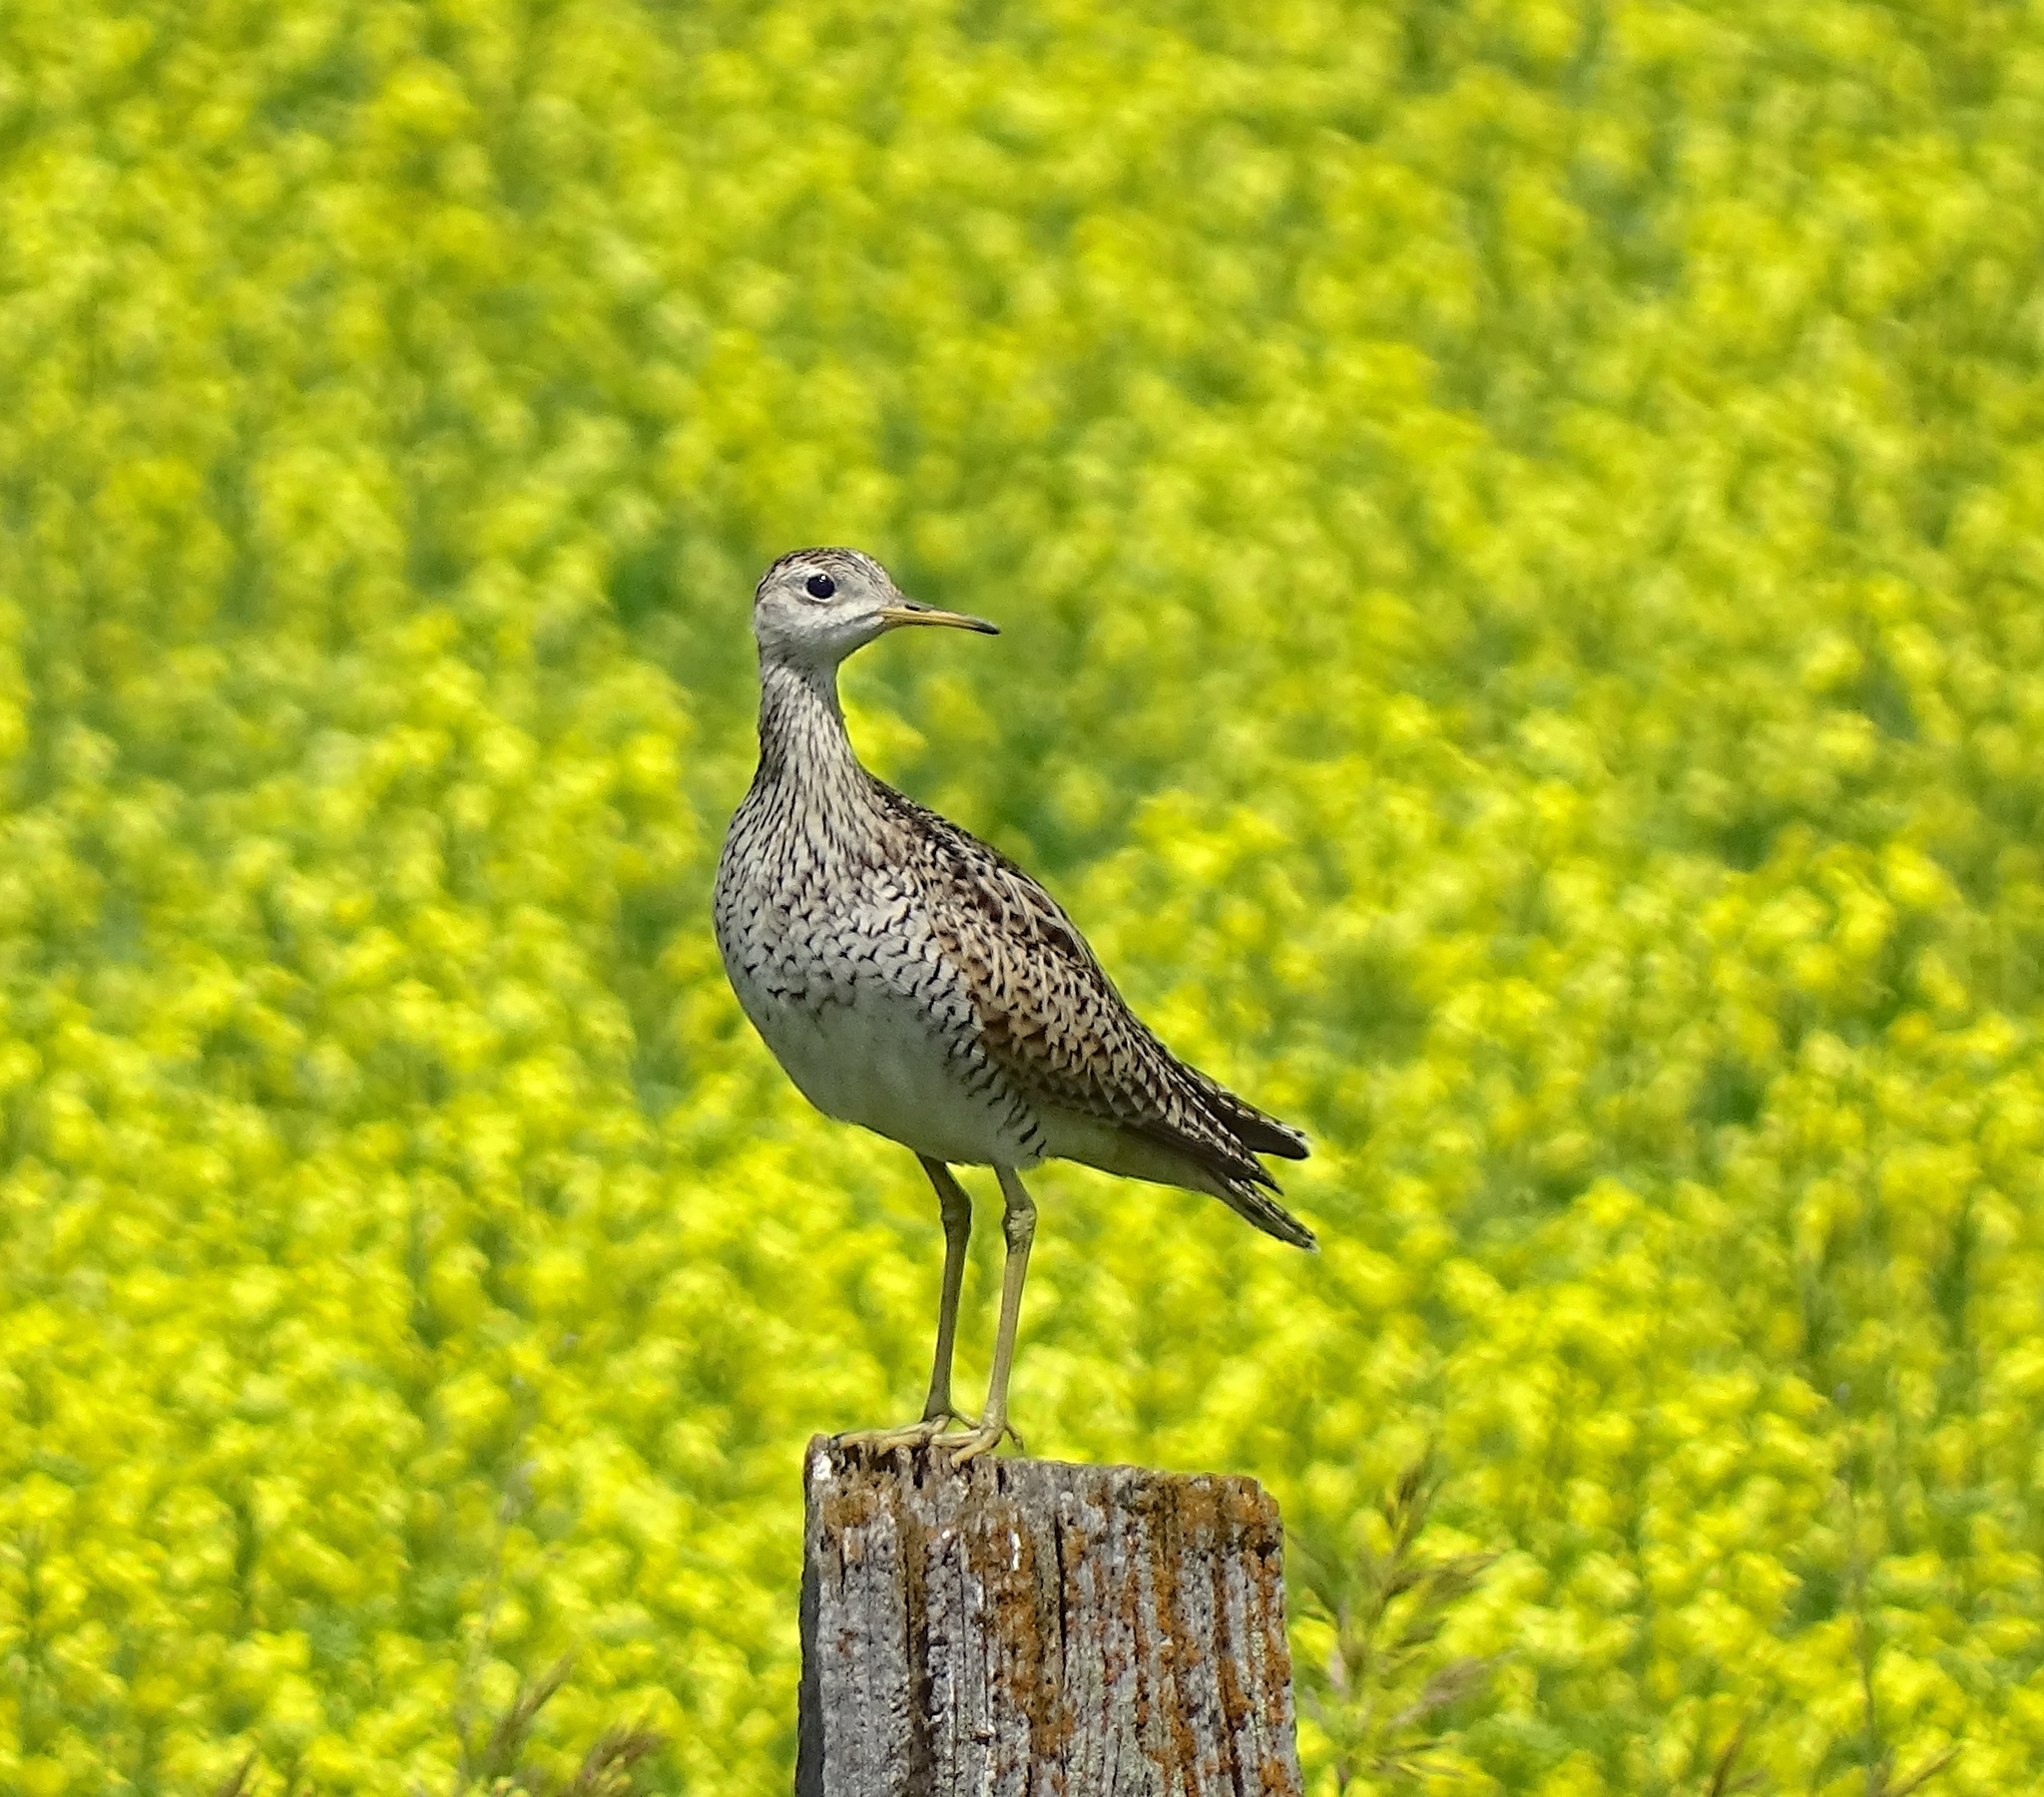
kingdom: Animalia
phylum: Chordata
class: Aves
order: Charadriiformes
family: Scolopacidae
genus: Bartramia
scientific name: Bartramia longicauda
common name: Upland sandpiper
